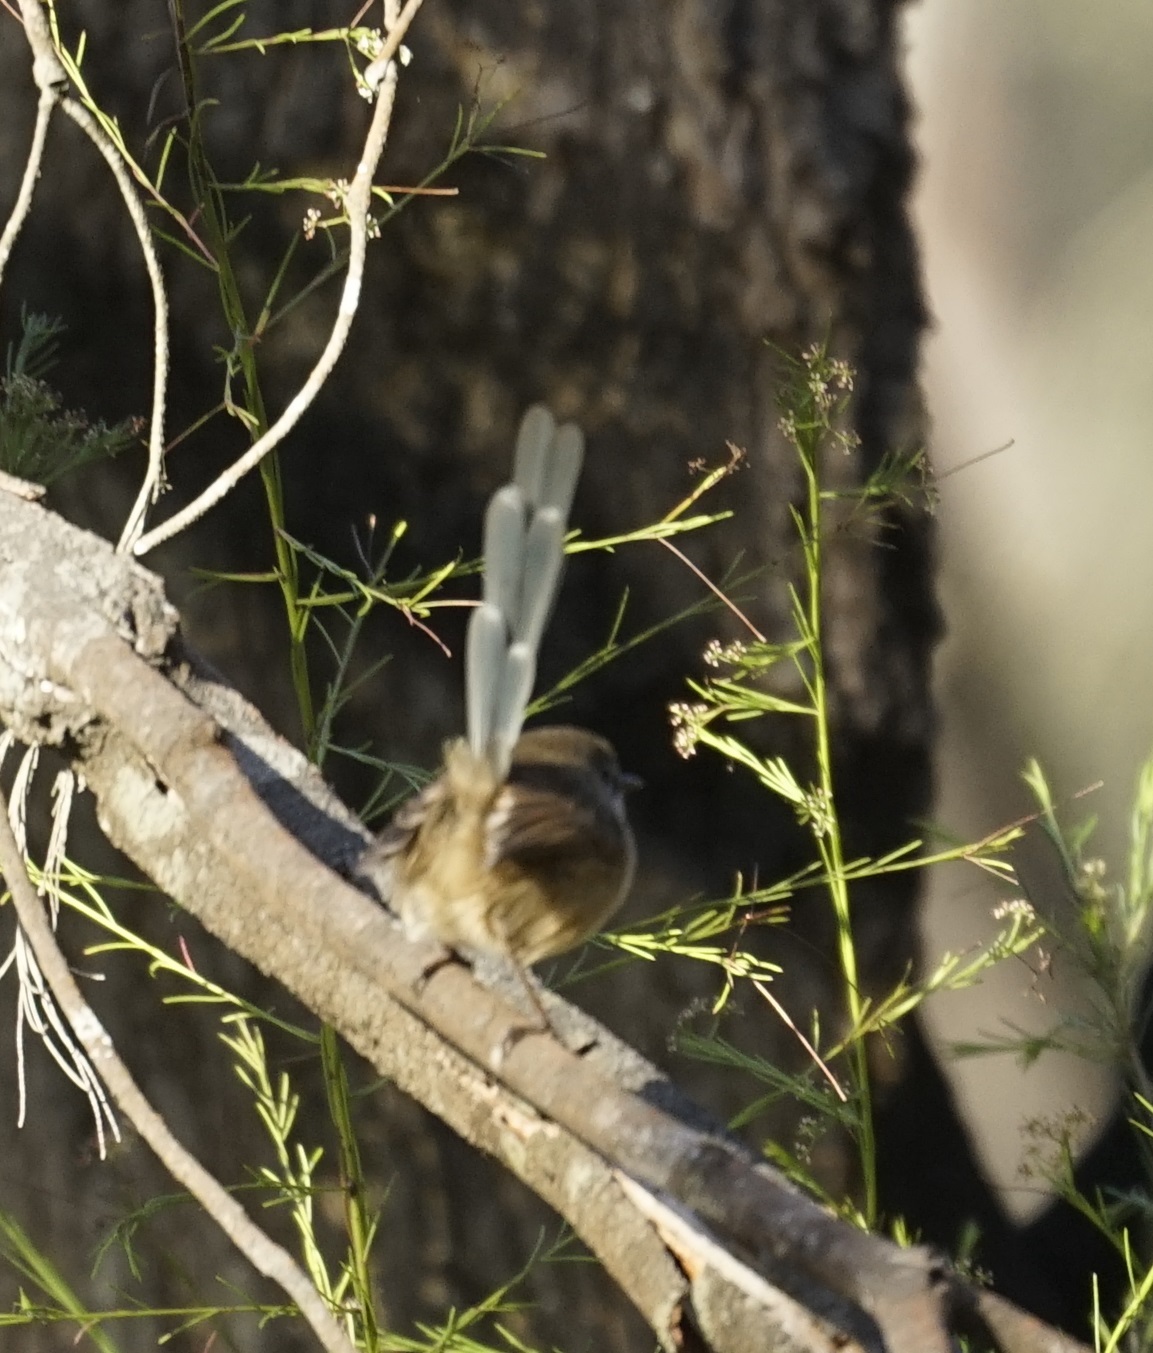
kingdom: Animalia
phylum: Chordata
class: Aves
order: Passeriformes
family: Maluridae
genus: Malurus
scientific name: Malurus lamberti
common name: Variegated fairywren
